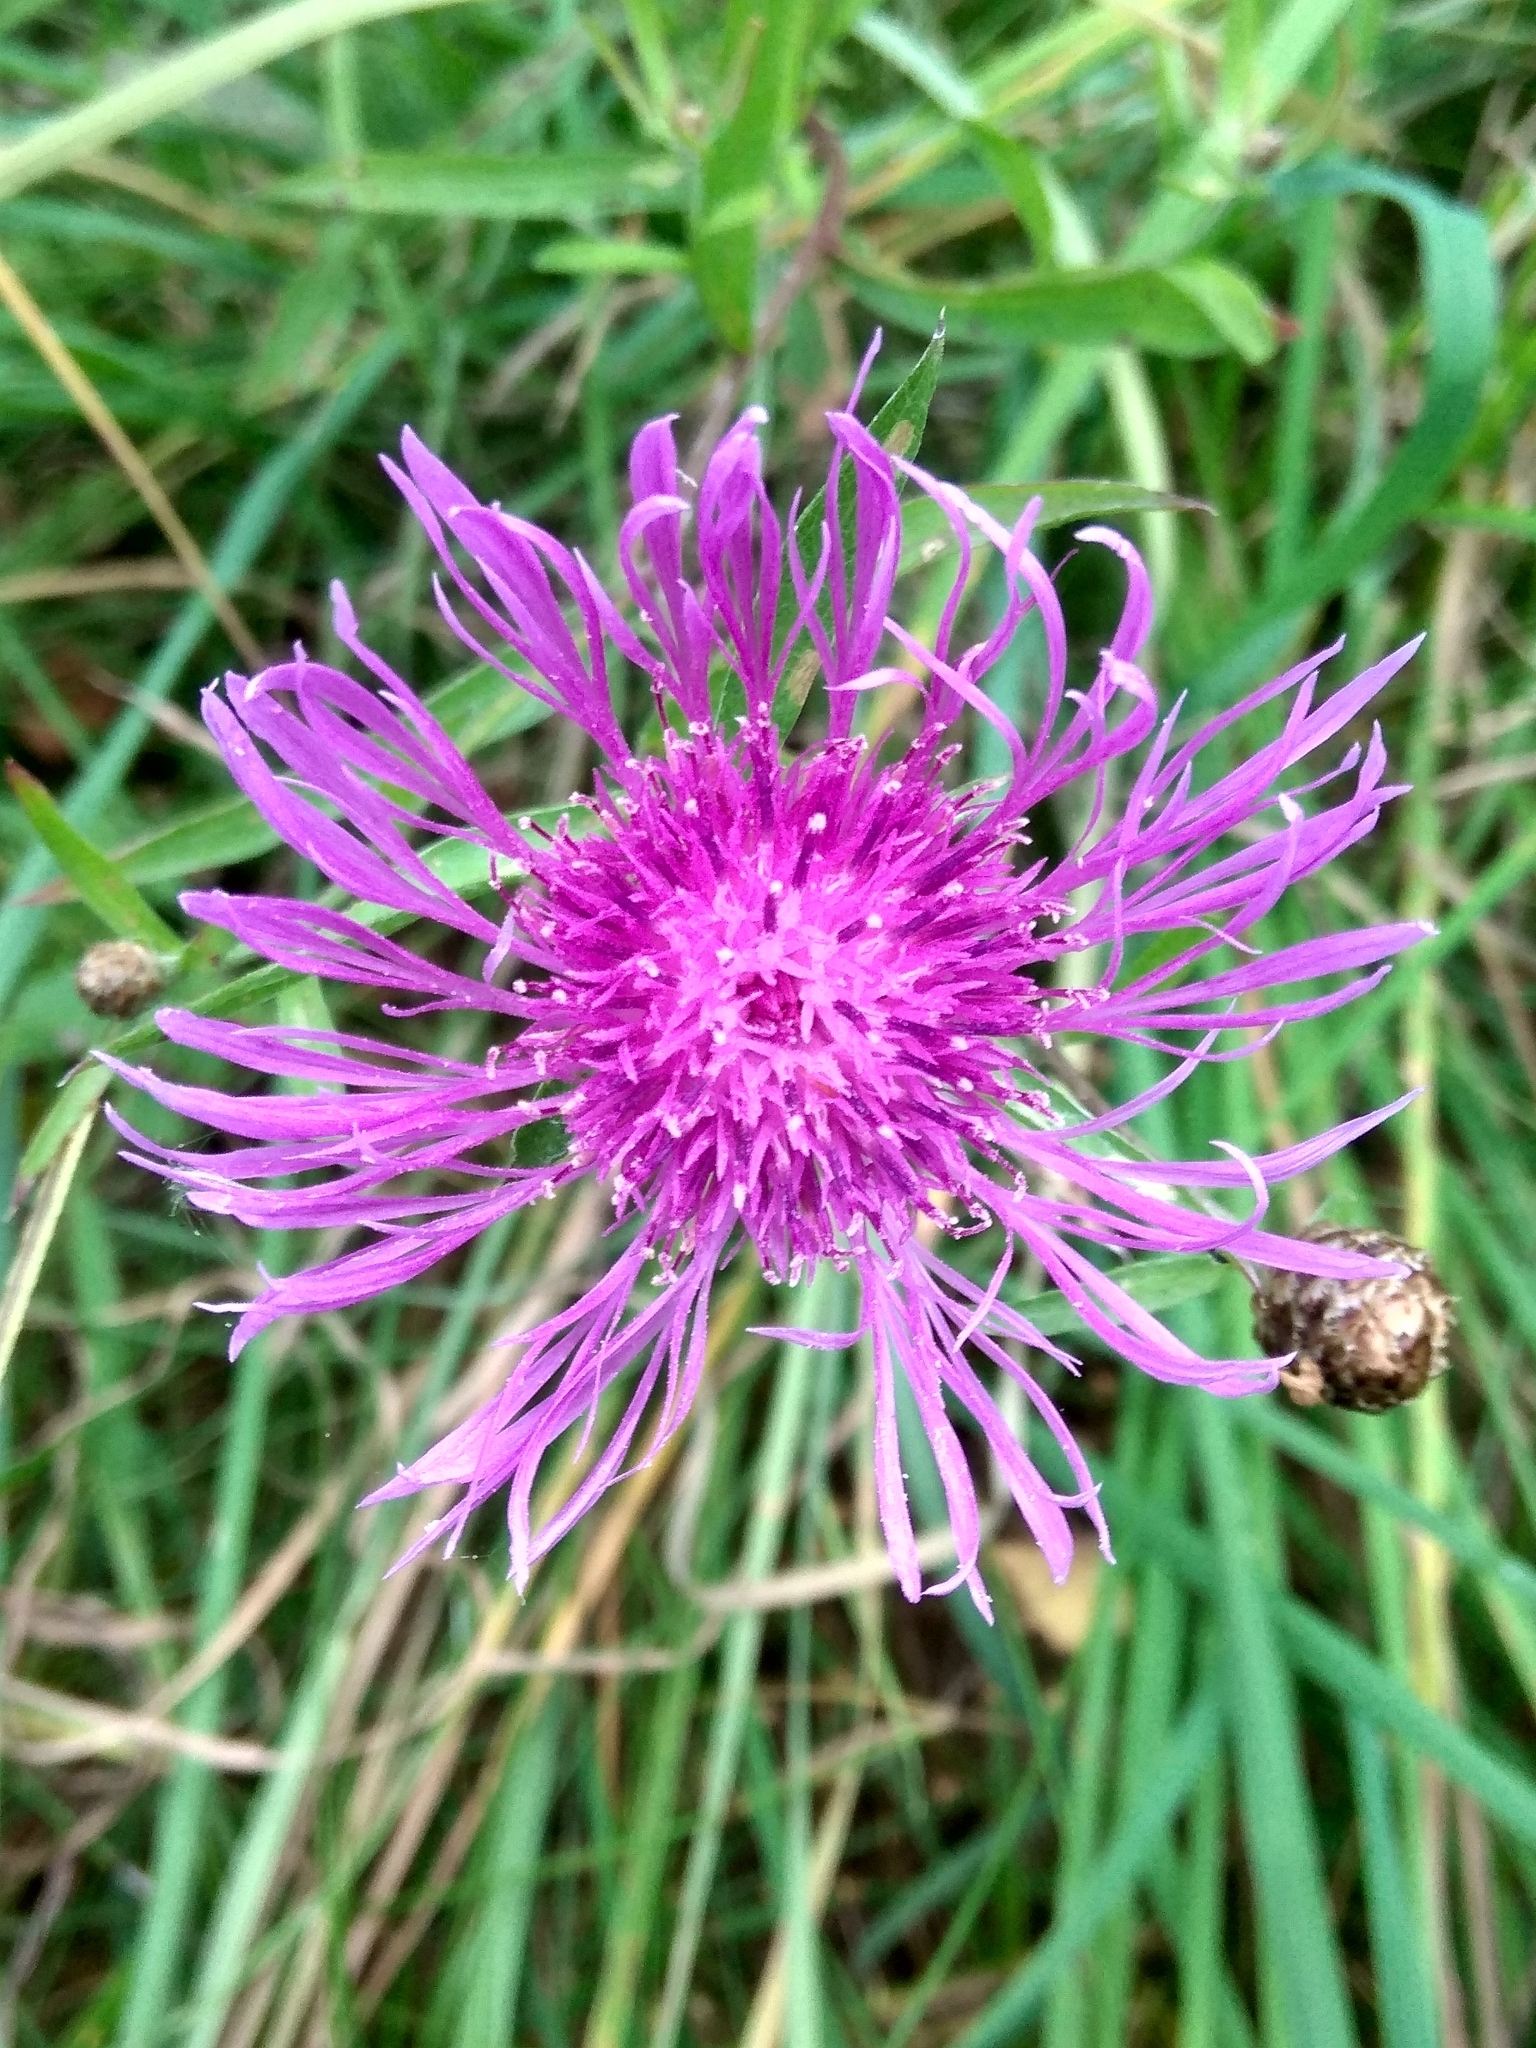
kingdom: Plantae
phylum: Tracheophyta
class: Magnoliopsida
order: Asterales
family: Asteraceae
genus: Centaurea
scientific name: Centaurea jacea
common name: Brown knapweed
